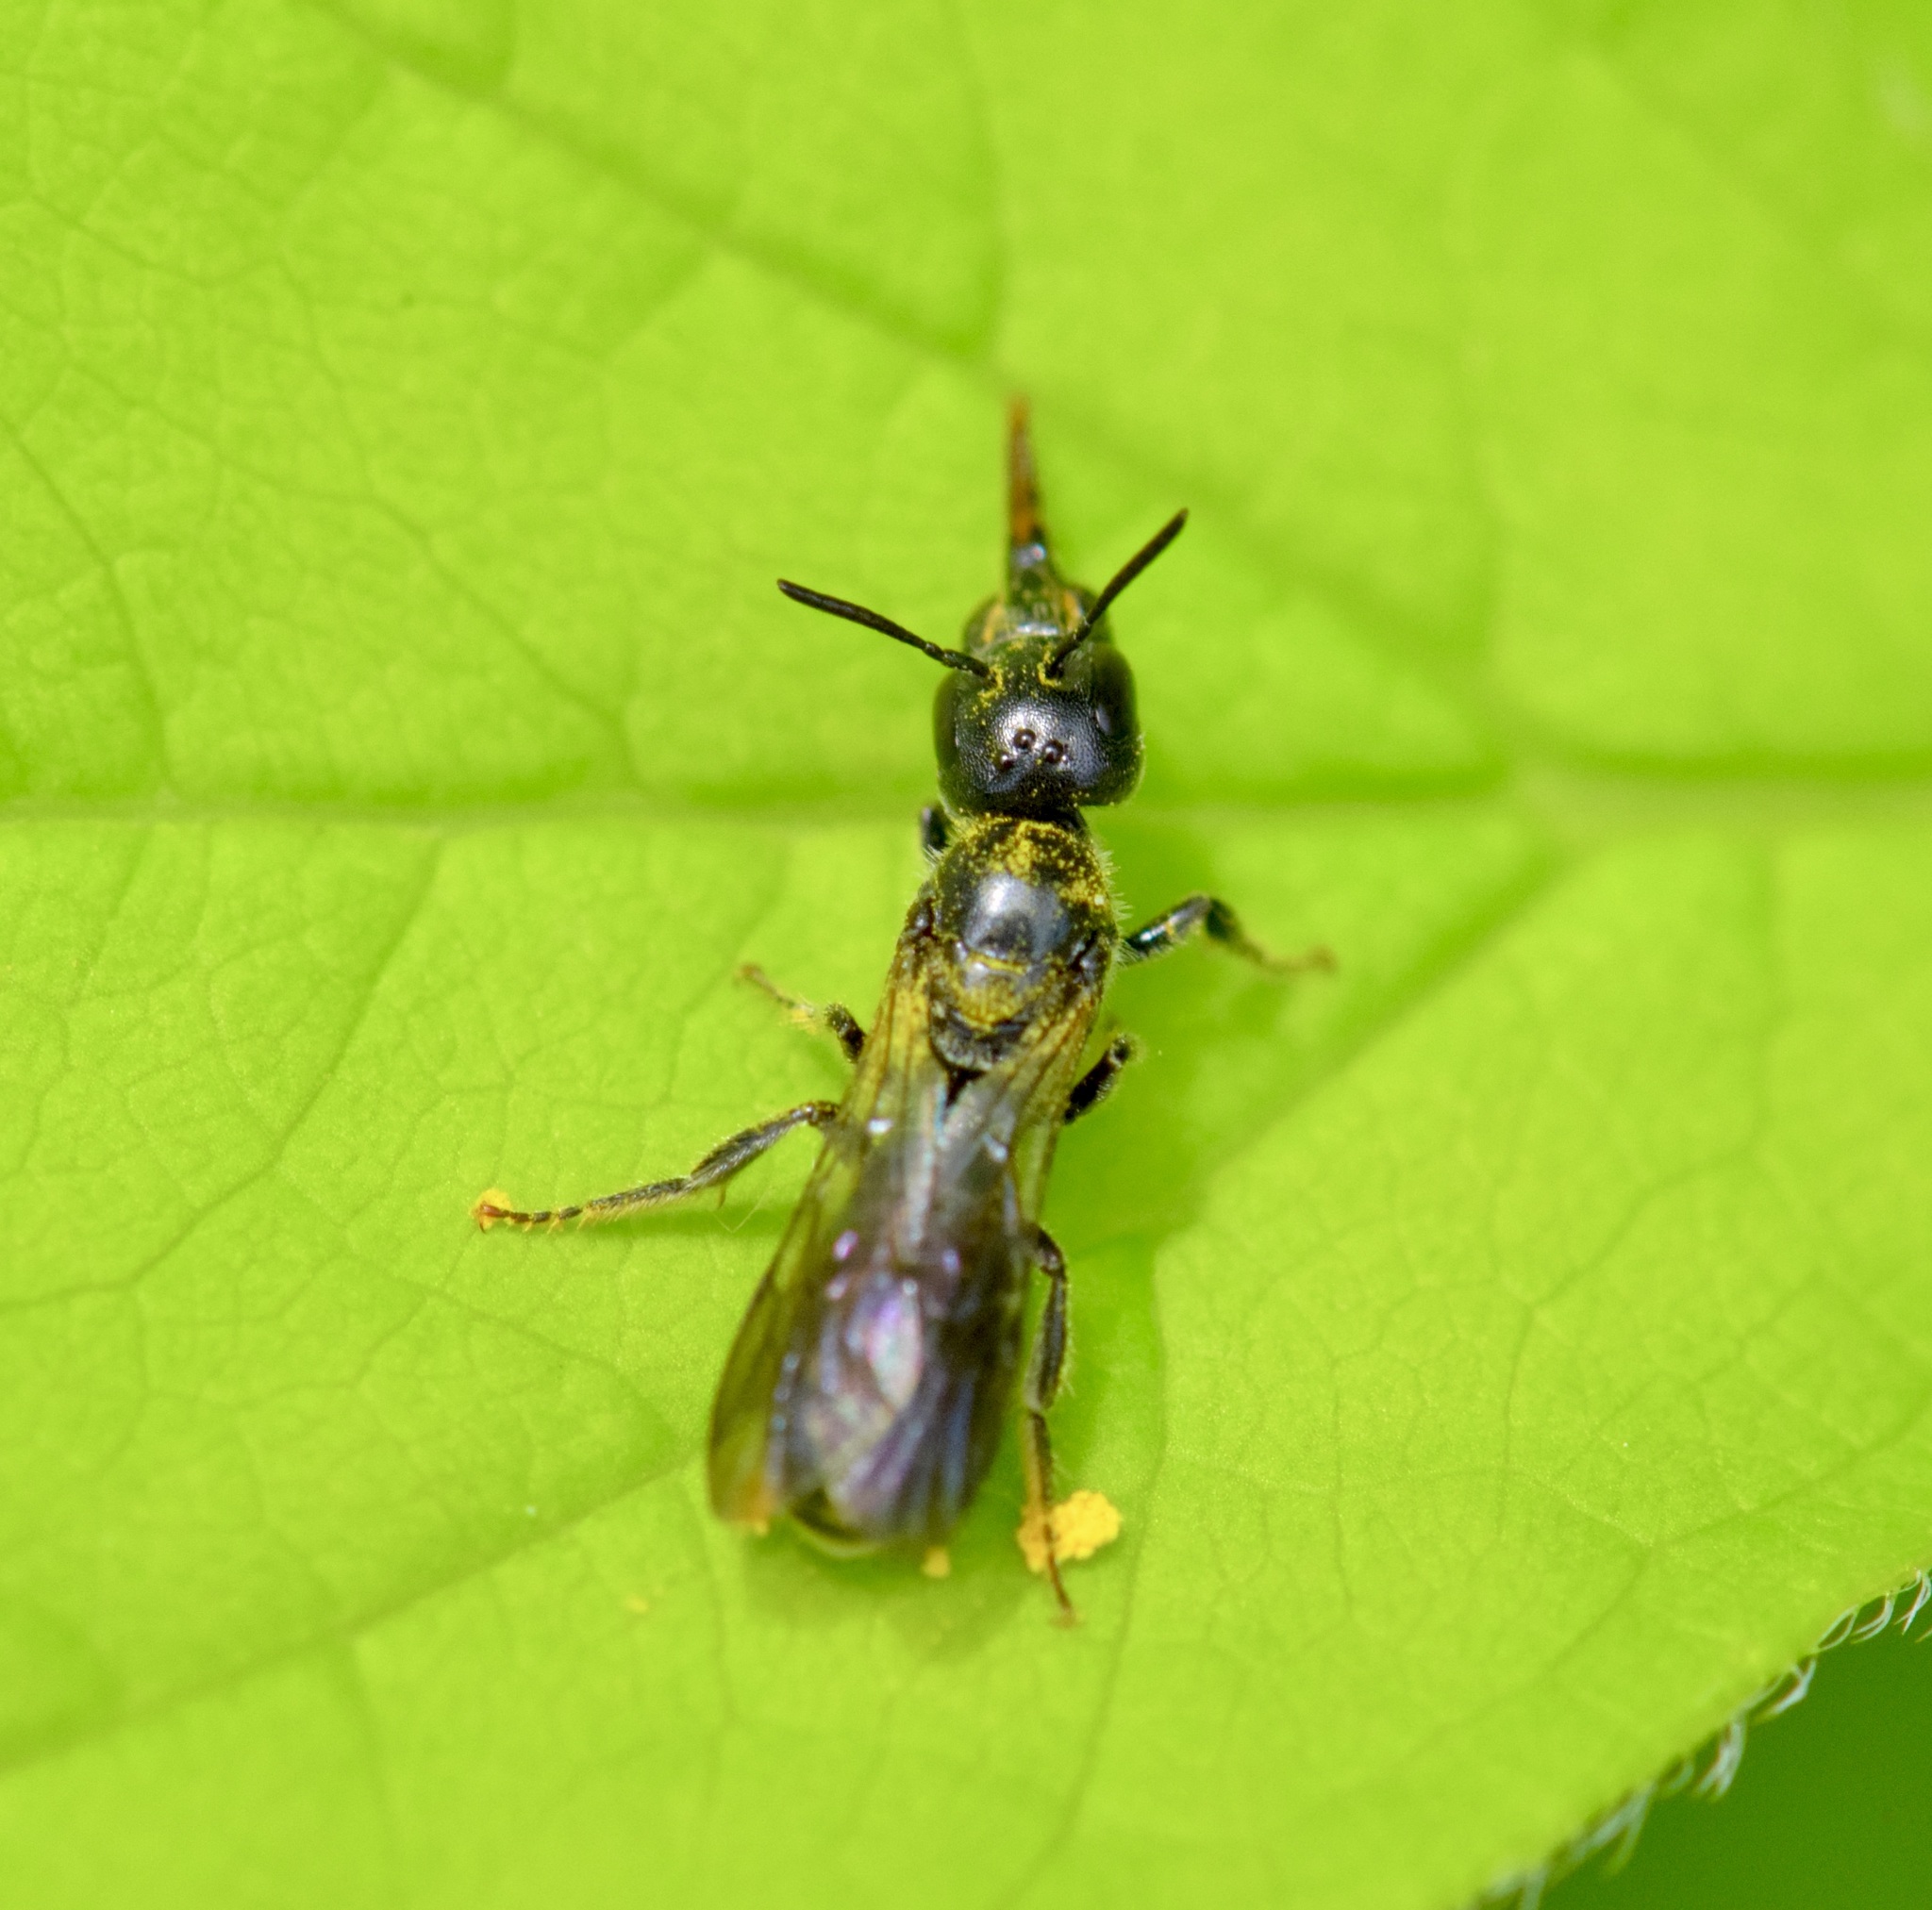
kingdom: Animalia
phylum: Arthropoda
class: Insecta
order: Hymenoptera
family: Megachilidae
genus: Chelostoma
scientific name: Chelostoma philadelphi
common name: Mock-orange scissor bee
